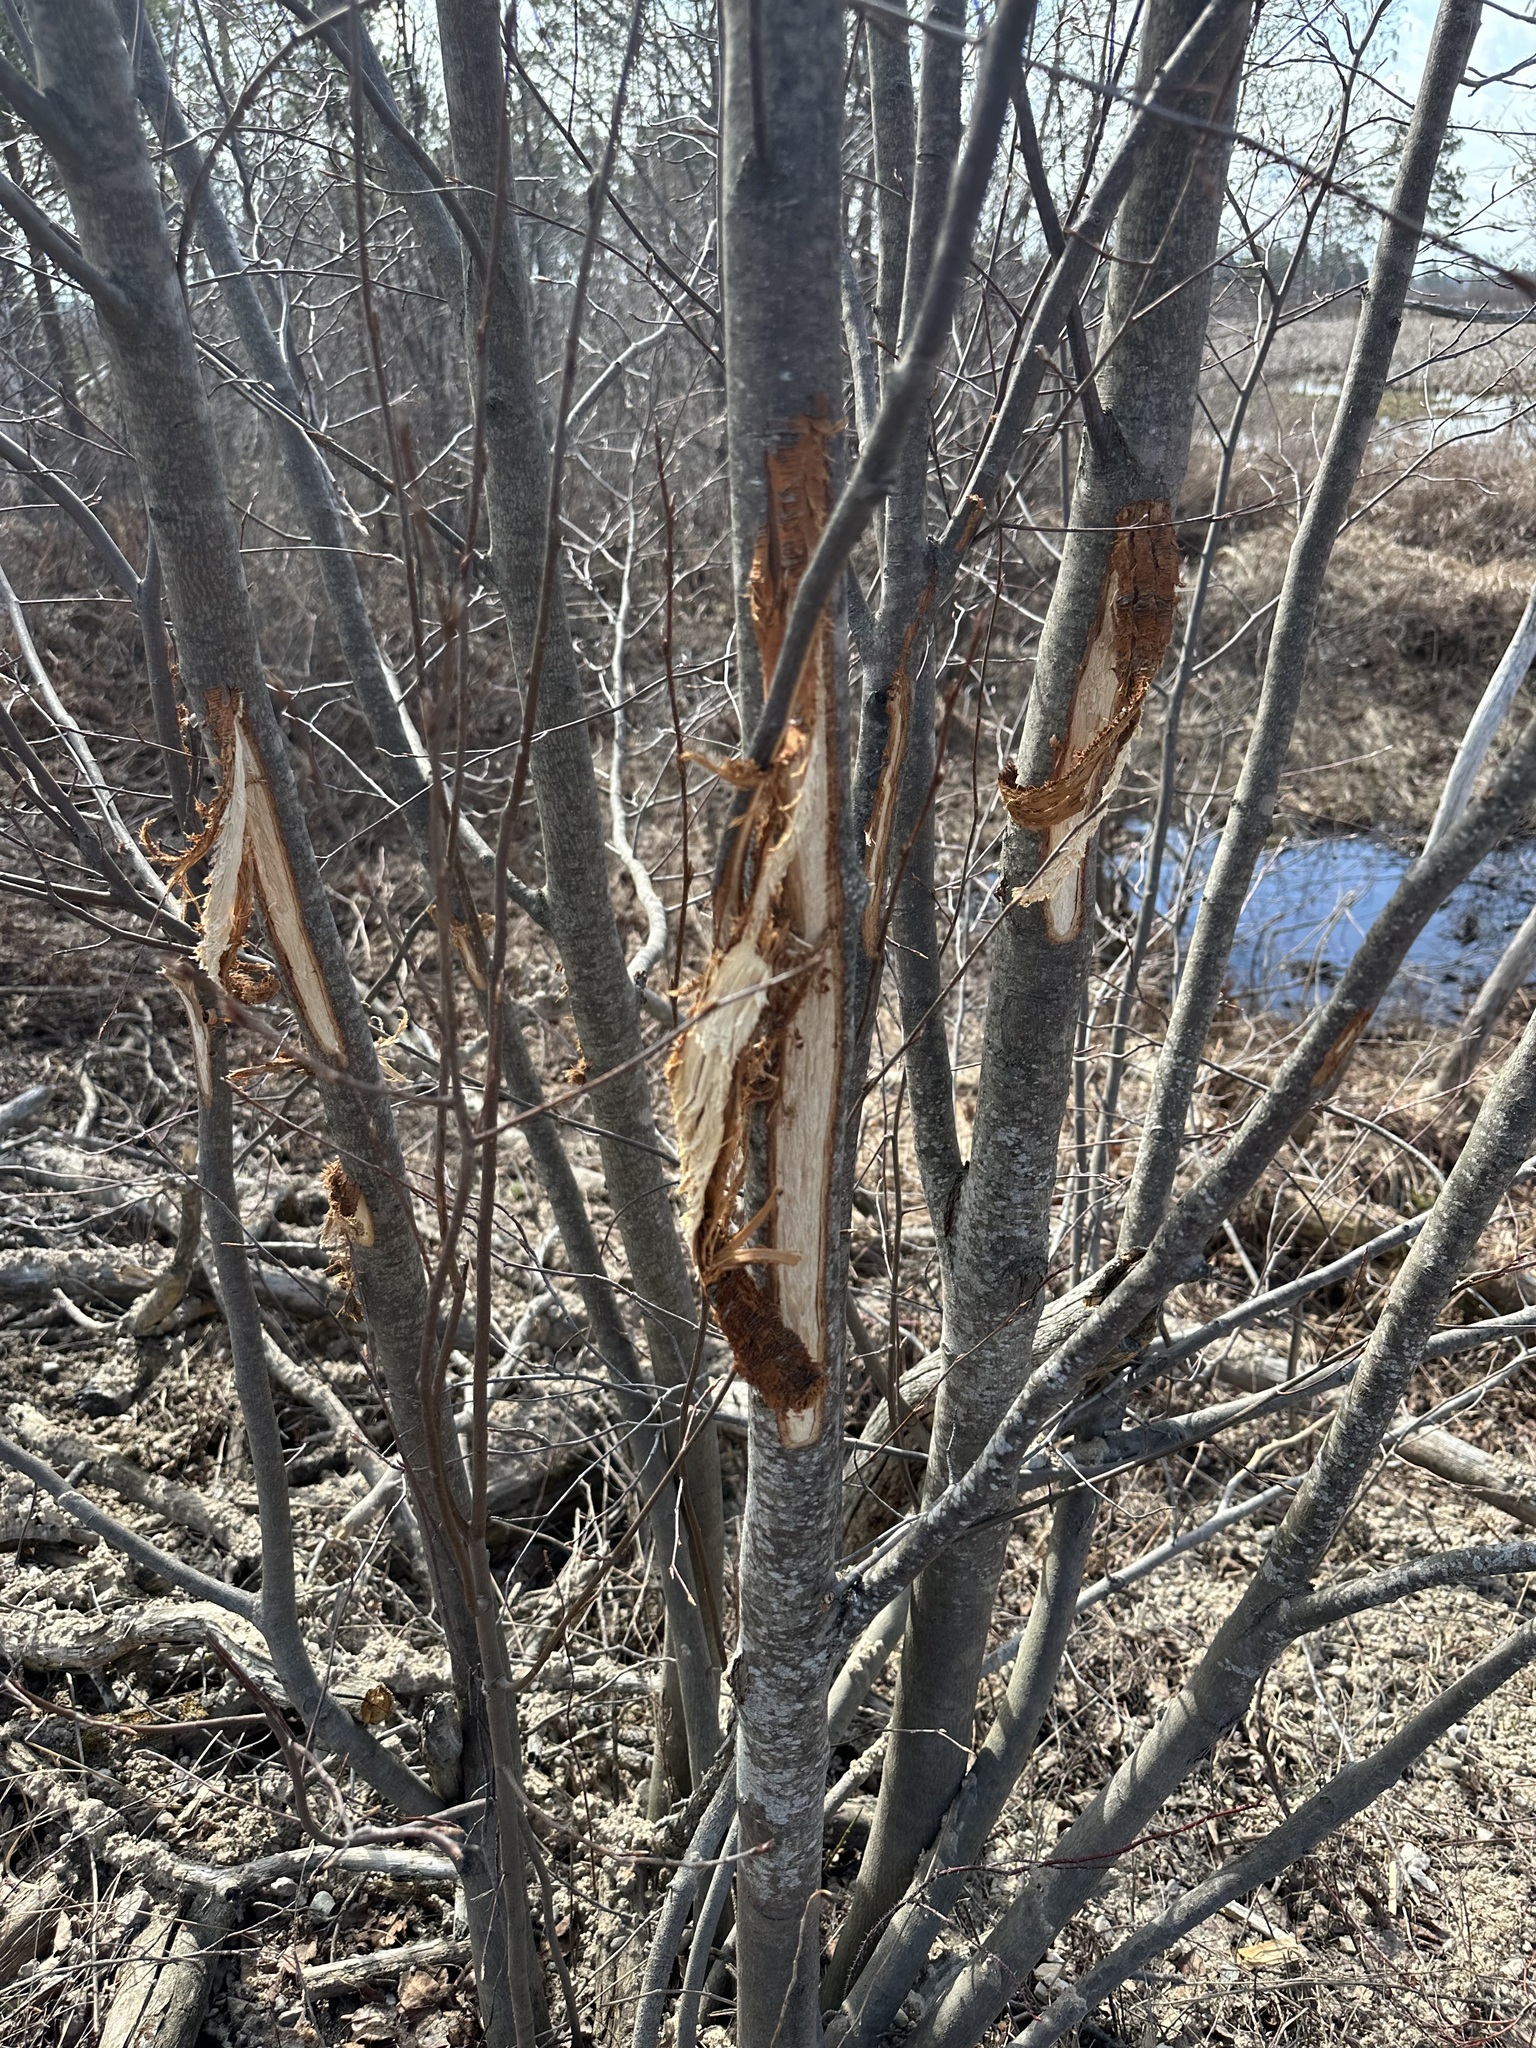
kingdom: Animalia
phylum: Chordata
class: Mammalia
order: Artiodactyla
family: Cervidae
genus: Odocoileus
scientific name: Odocoileus virginianus
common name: White-tailed deer
